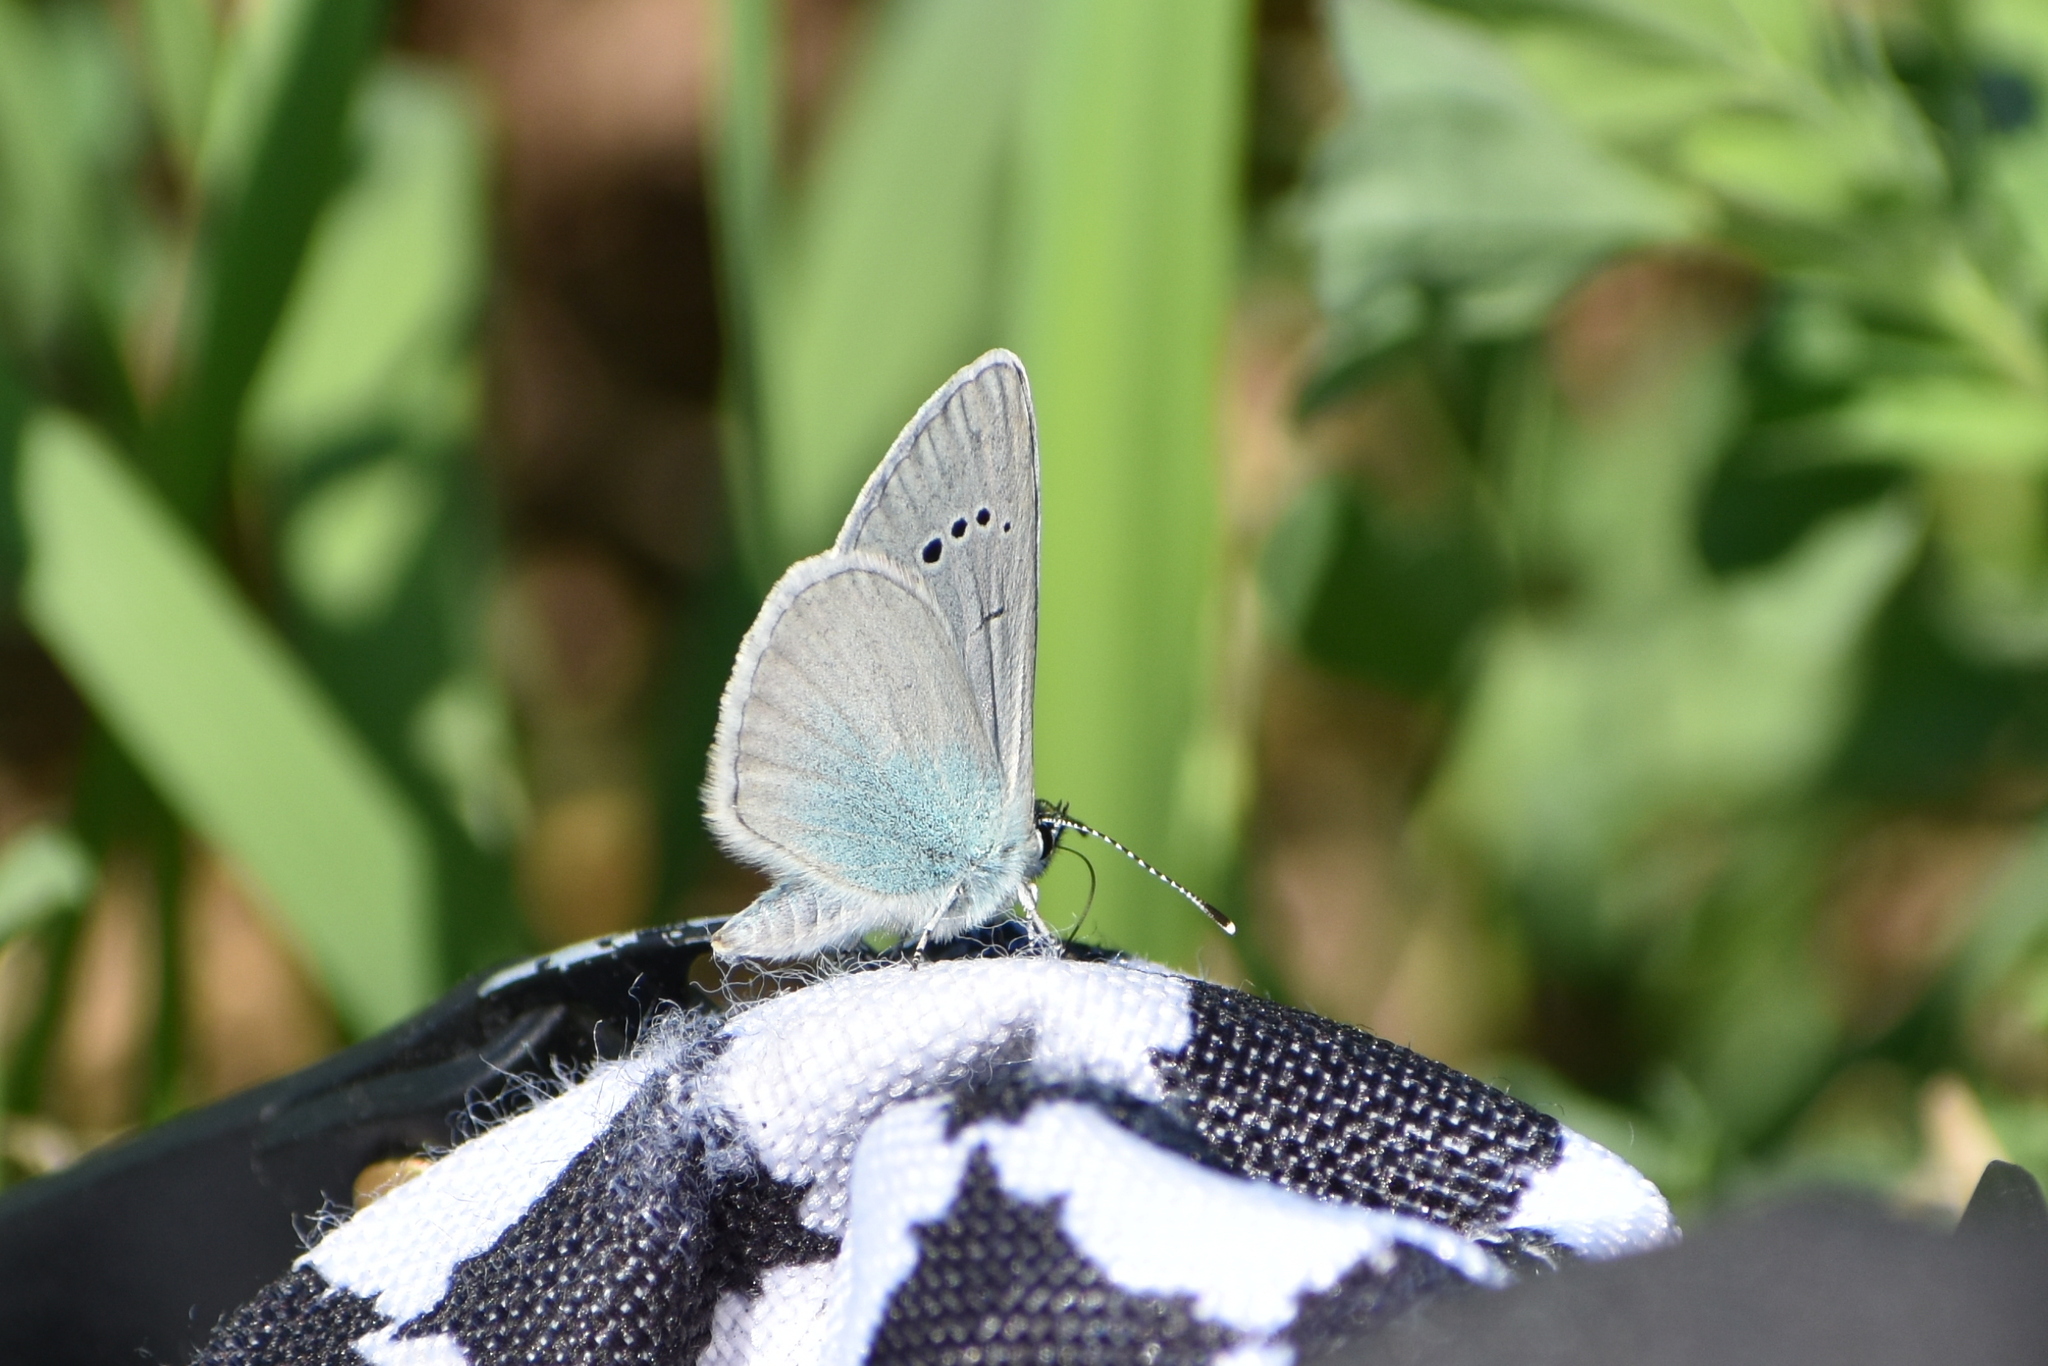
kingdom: Animalia
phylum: Arthropoda
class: Insecta
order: Lepidoptera
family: Lycaenidae
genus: Glaucopsyche
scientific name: Glaucopsyche alexis
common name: Green-underside blue
